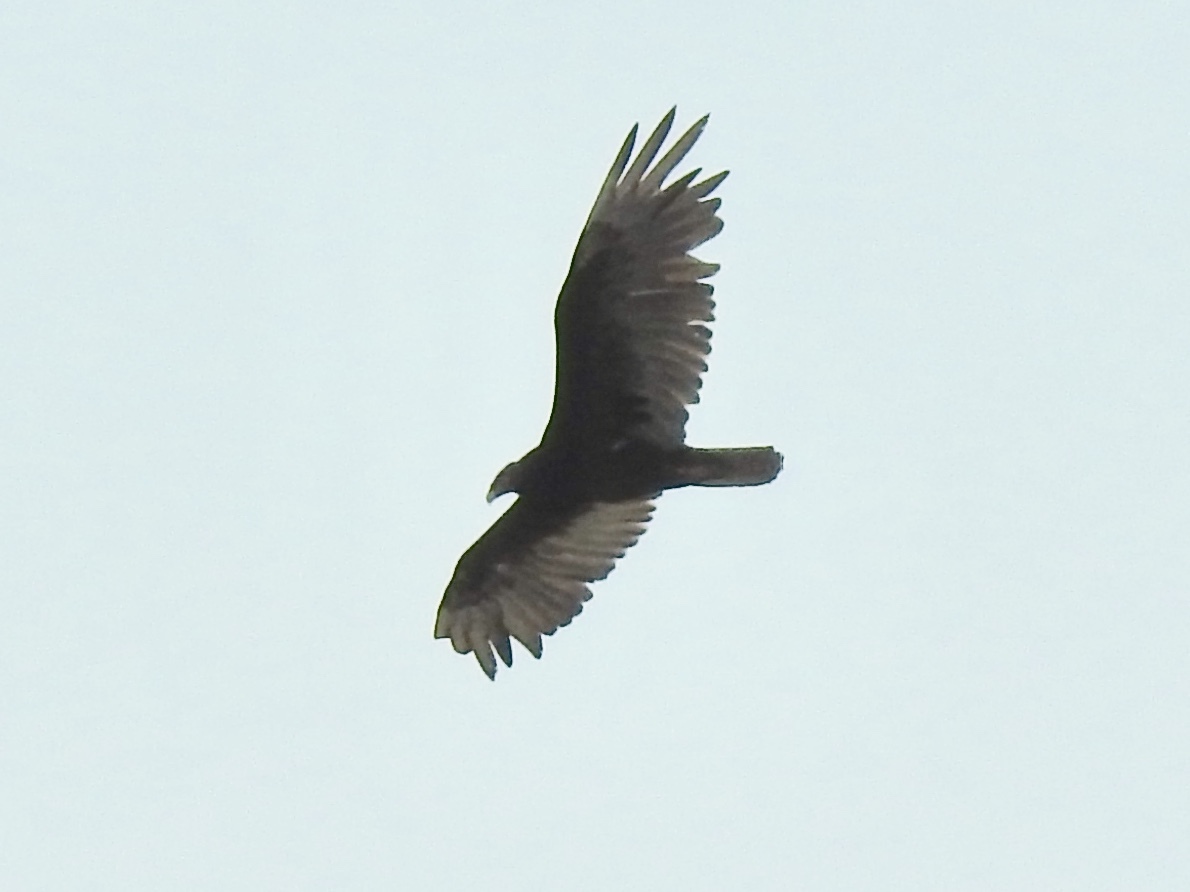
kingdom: Animalia
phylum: Chordata
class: Aves
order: Accipitriformes
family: Cathartidae
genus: Cathartes
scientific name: Cathartes aura
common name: Turkey vulture
